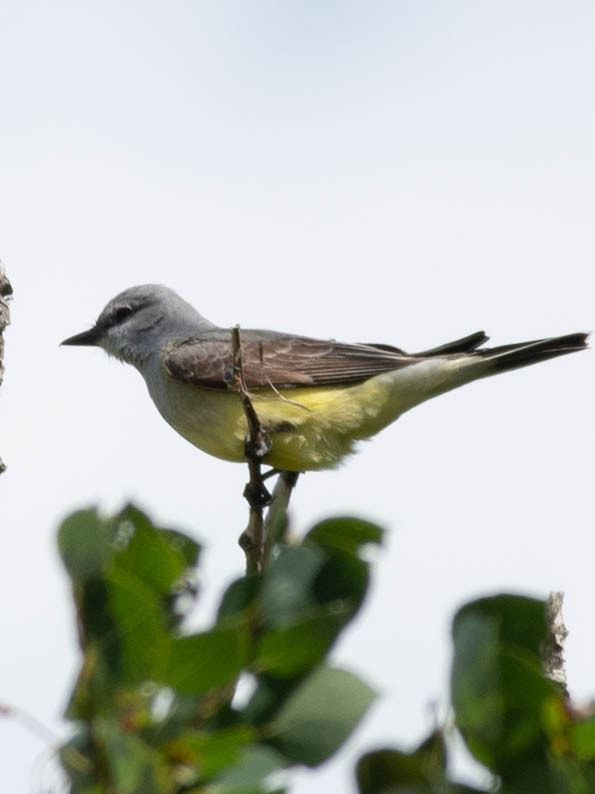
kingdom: Animalia
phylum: Chordata
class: Aves
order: Passeriformes
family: Tyrannidae
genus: Tyrannus
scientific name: Tyrannus verticalis
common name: Western kingbird
